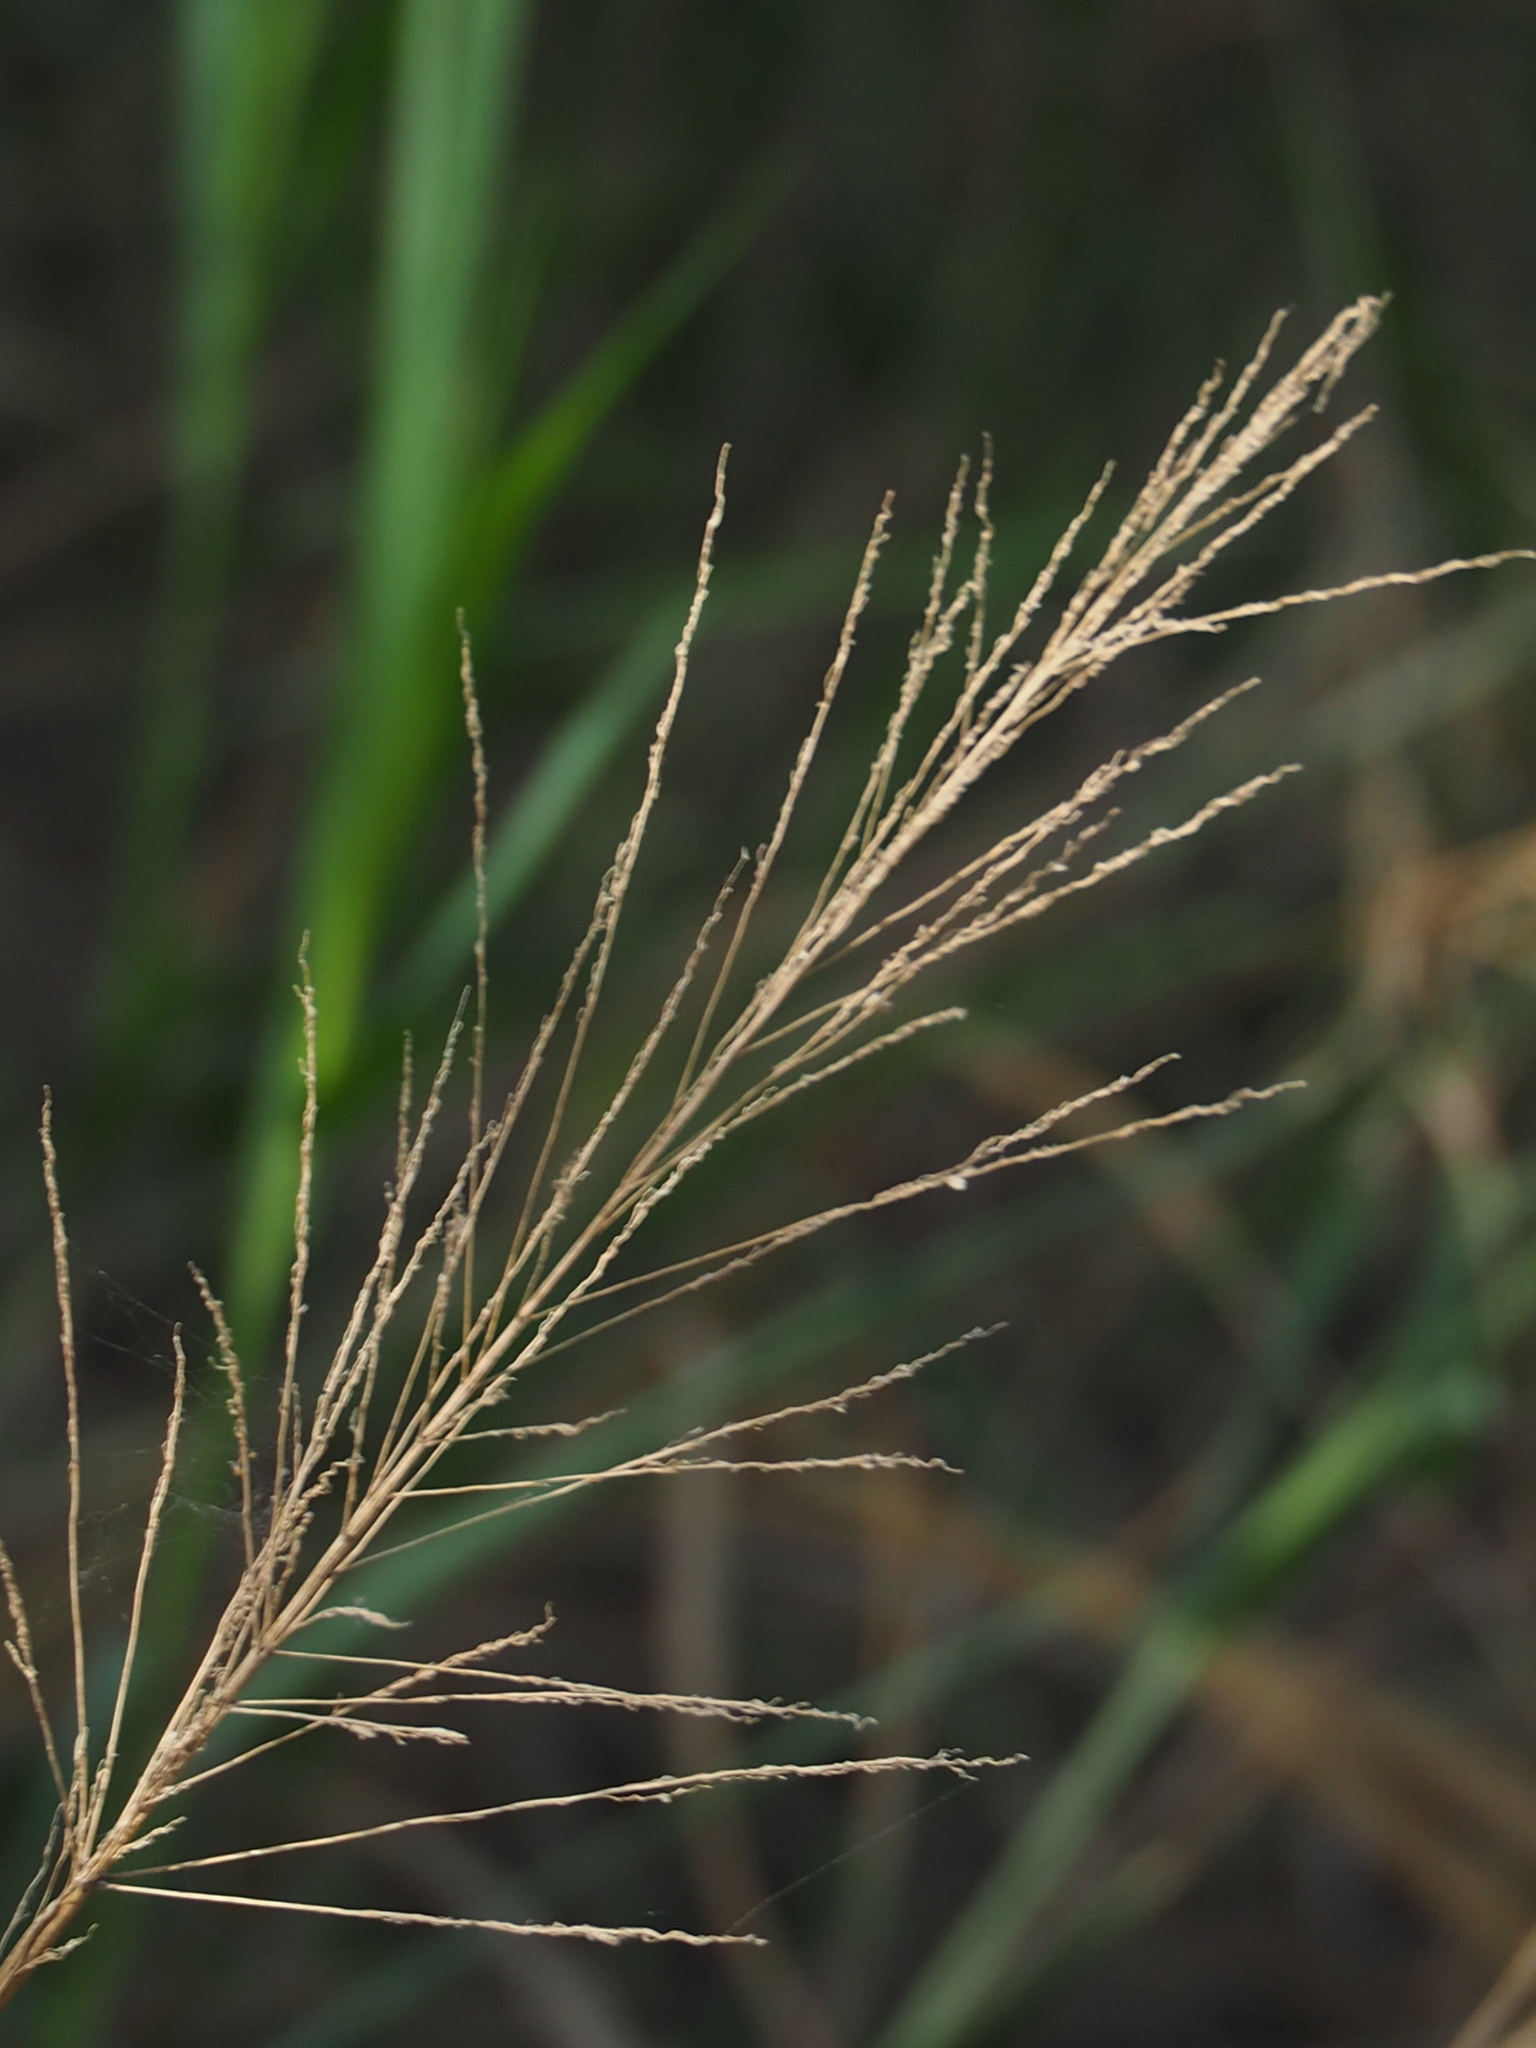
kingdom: Plantae
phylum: Tracheophyta
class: Liliopsida
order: Poales
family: Poaceae
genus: Megathyrsus
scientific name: Megathyrsus maximus
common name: Guineagrass
